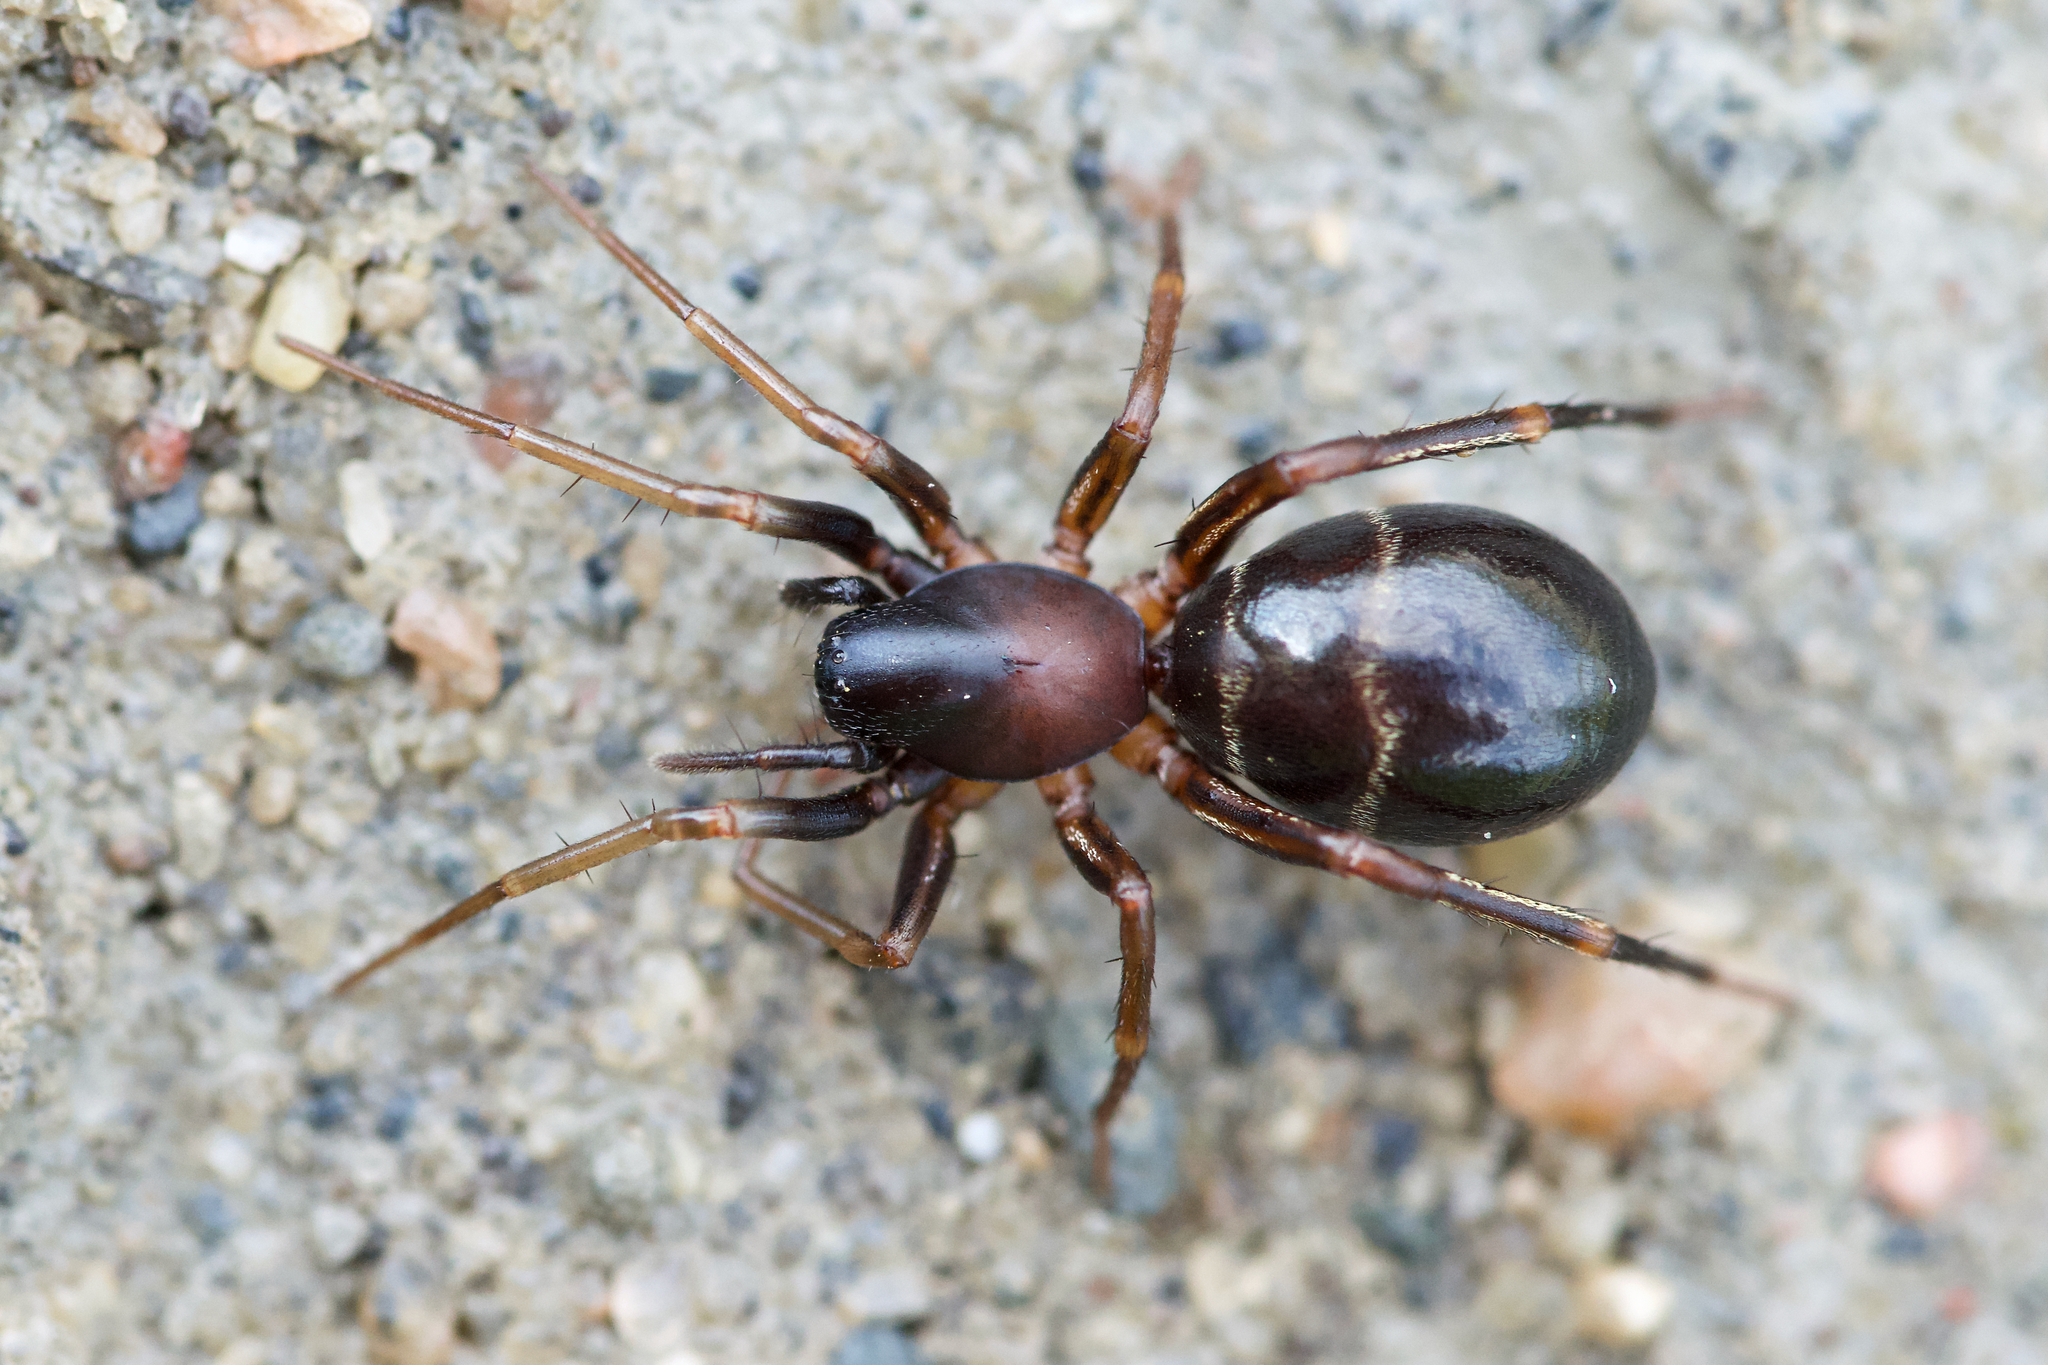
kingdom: Animalia
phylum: Arthropoda
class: Arachnida
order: Araneae
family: Corinnidae
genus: Castianeira
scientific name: Castianeira cingulata
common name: Two-banded ant-mimic sac spider
